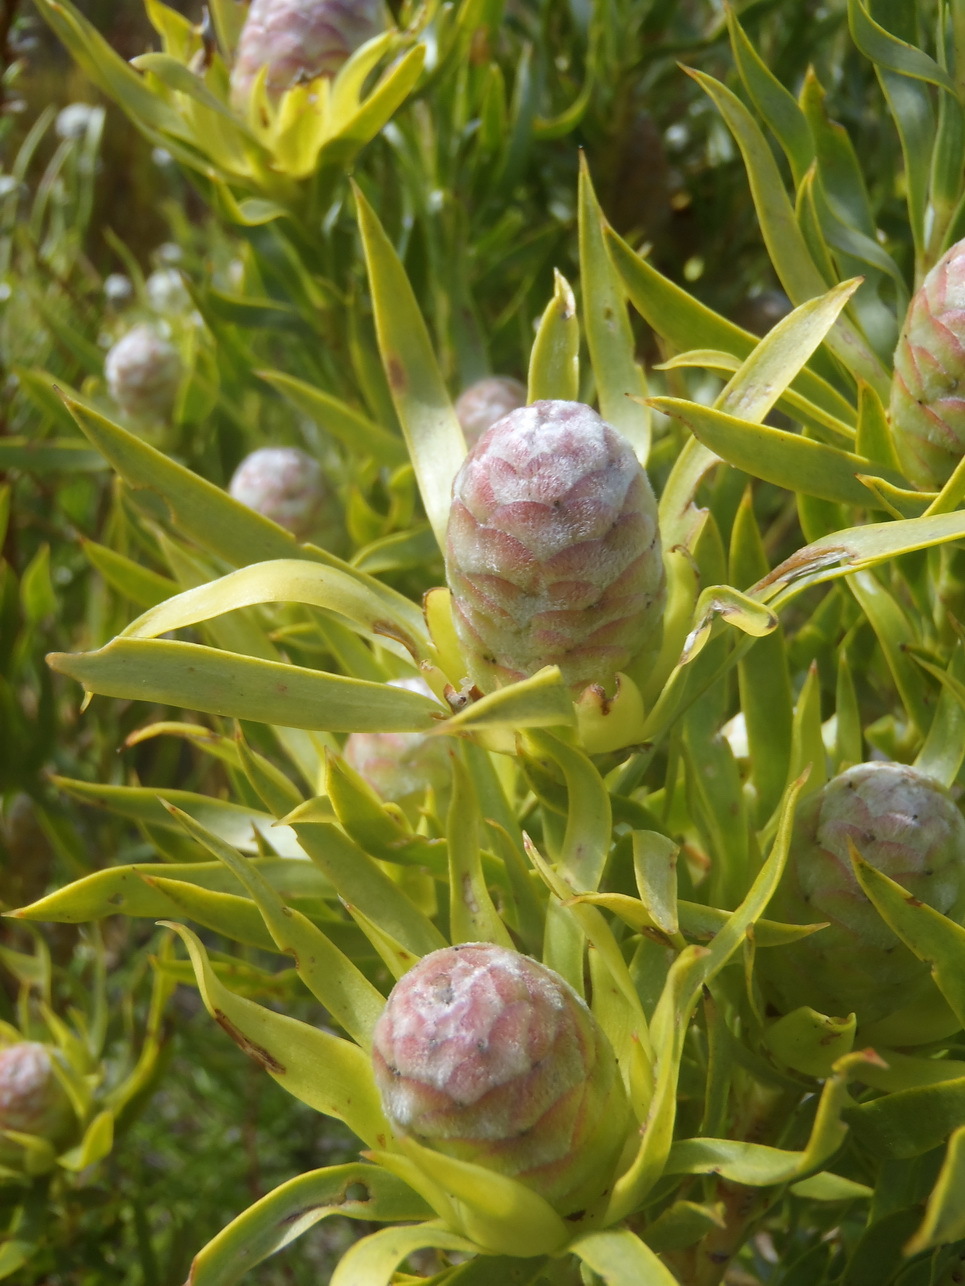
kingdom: Plantae
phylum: Tracheophyta
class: Magnoliopsida
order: Proteales
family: Proteaceae
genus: Leucadendron
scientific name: Leucadendron xanthoconus
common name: Sickle-leaf conebush
